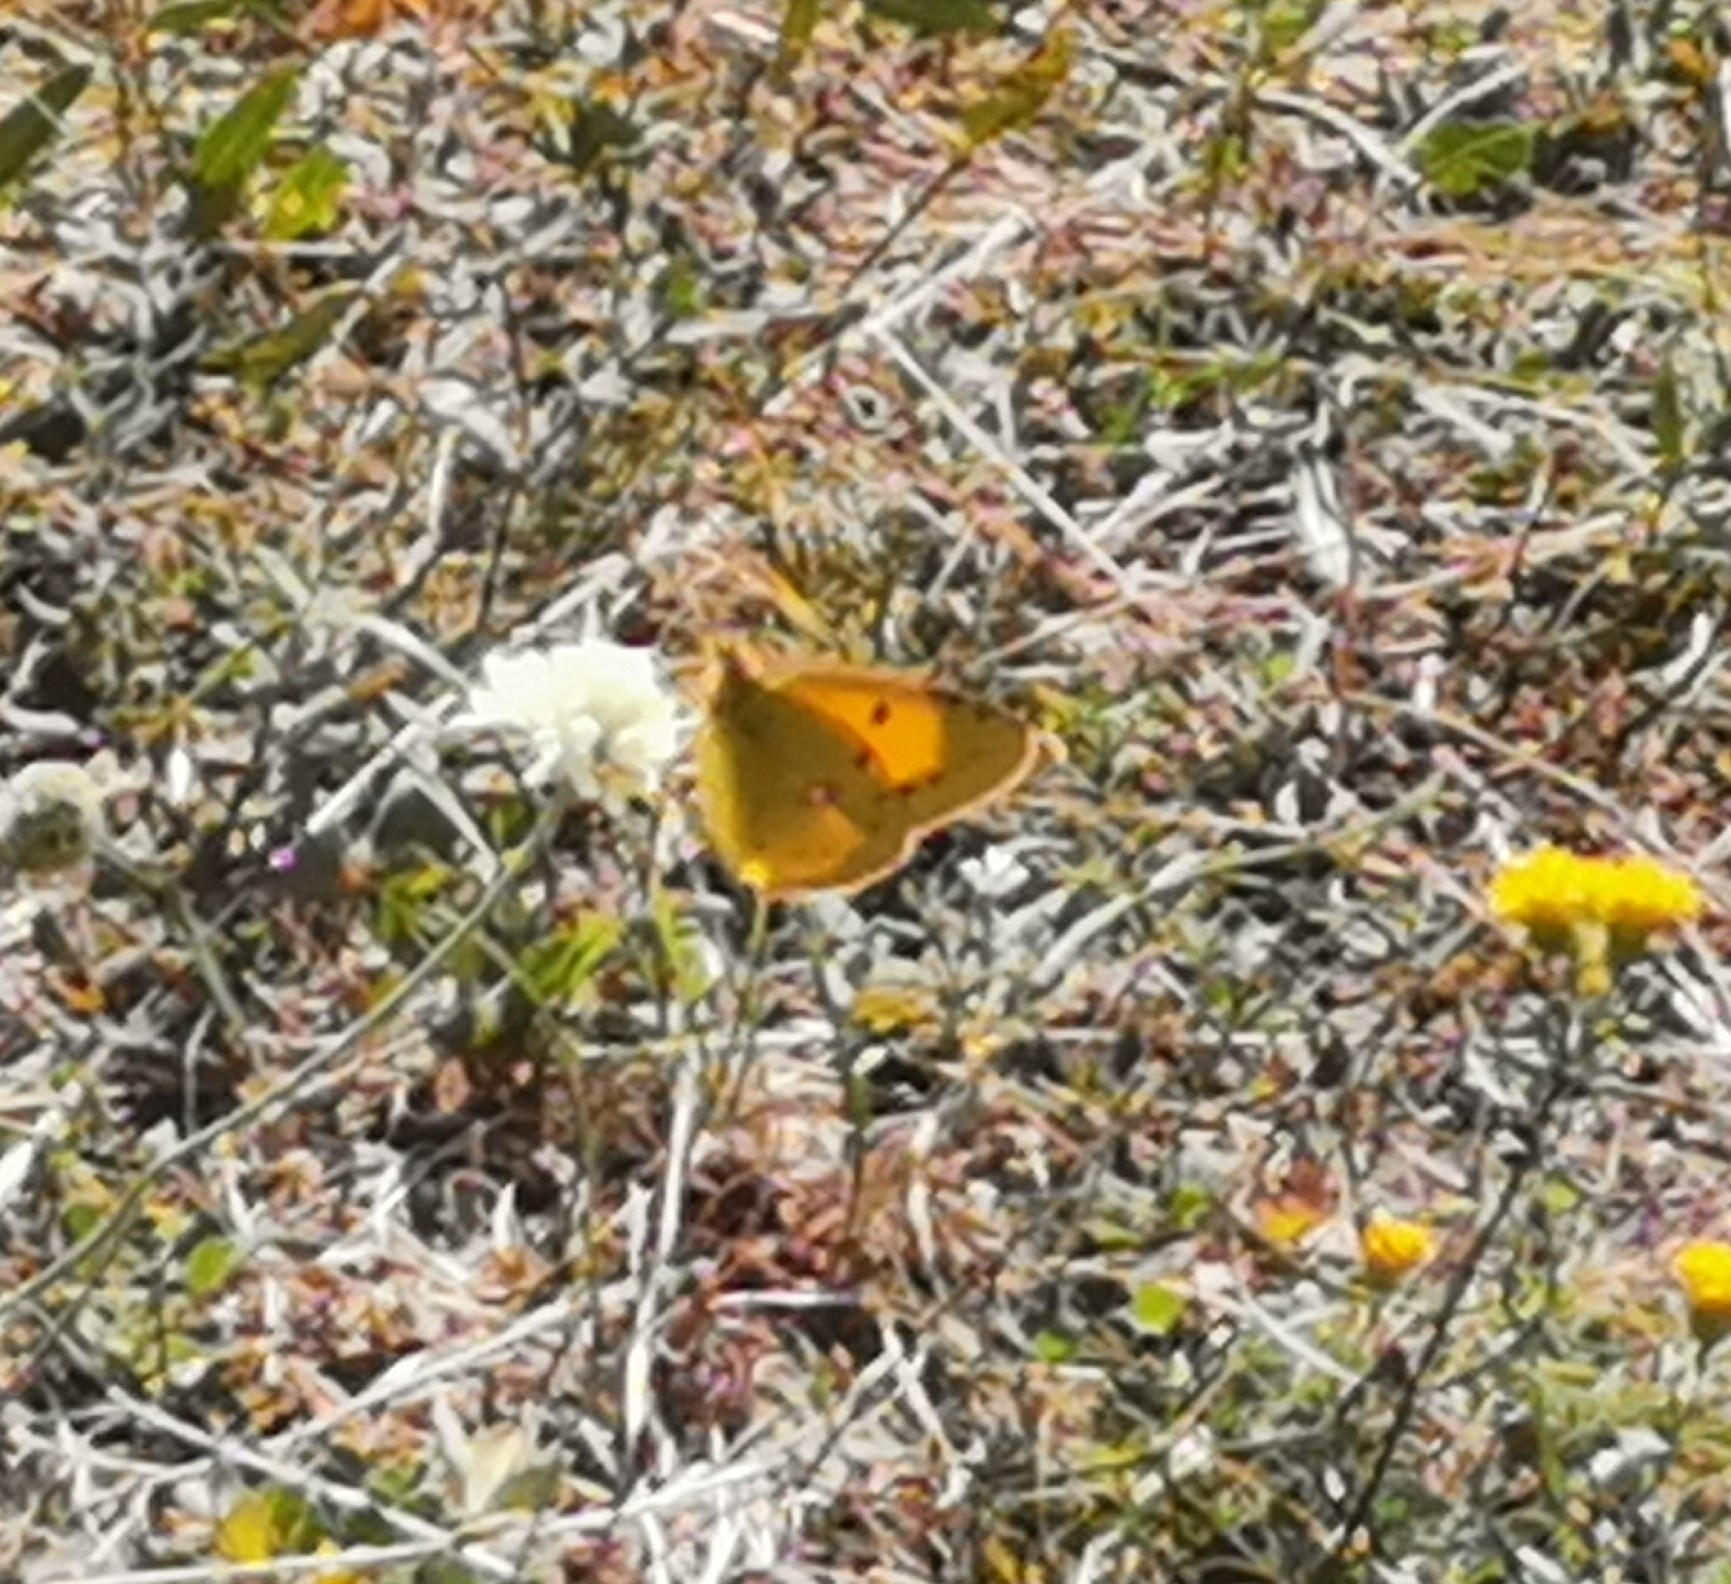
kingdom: Animalia
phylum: Arthropoda
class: Insecta
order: Lepidoptera
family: Pieridae
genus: Colias
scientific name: Colias croceus
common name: Clouded yellow
